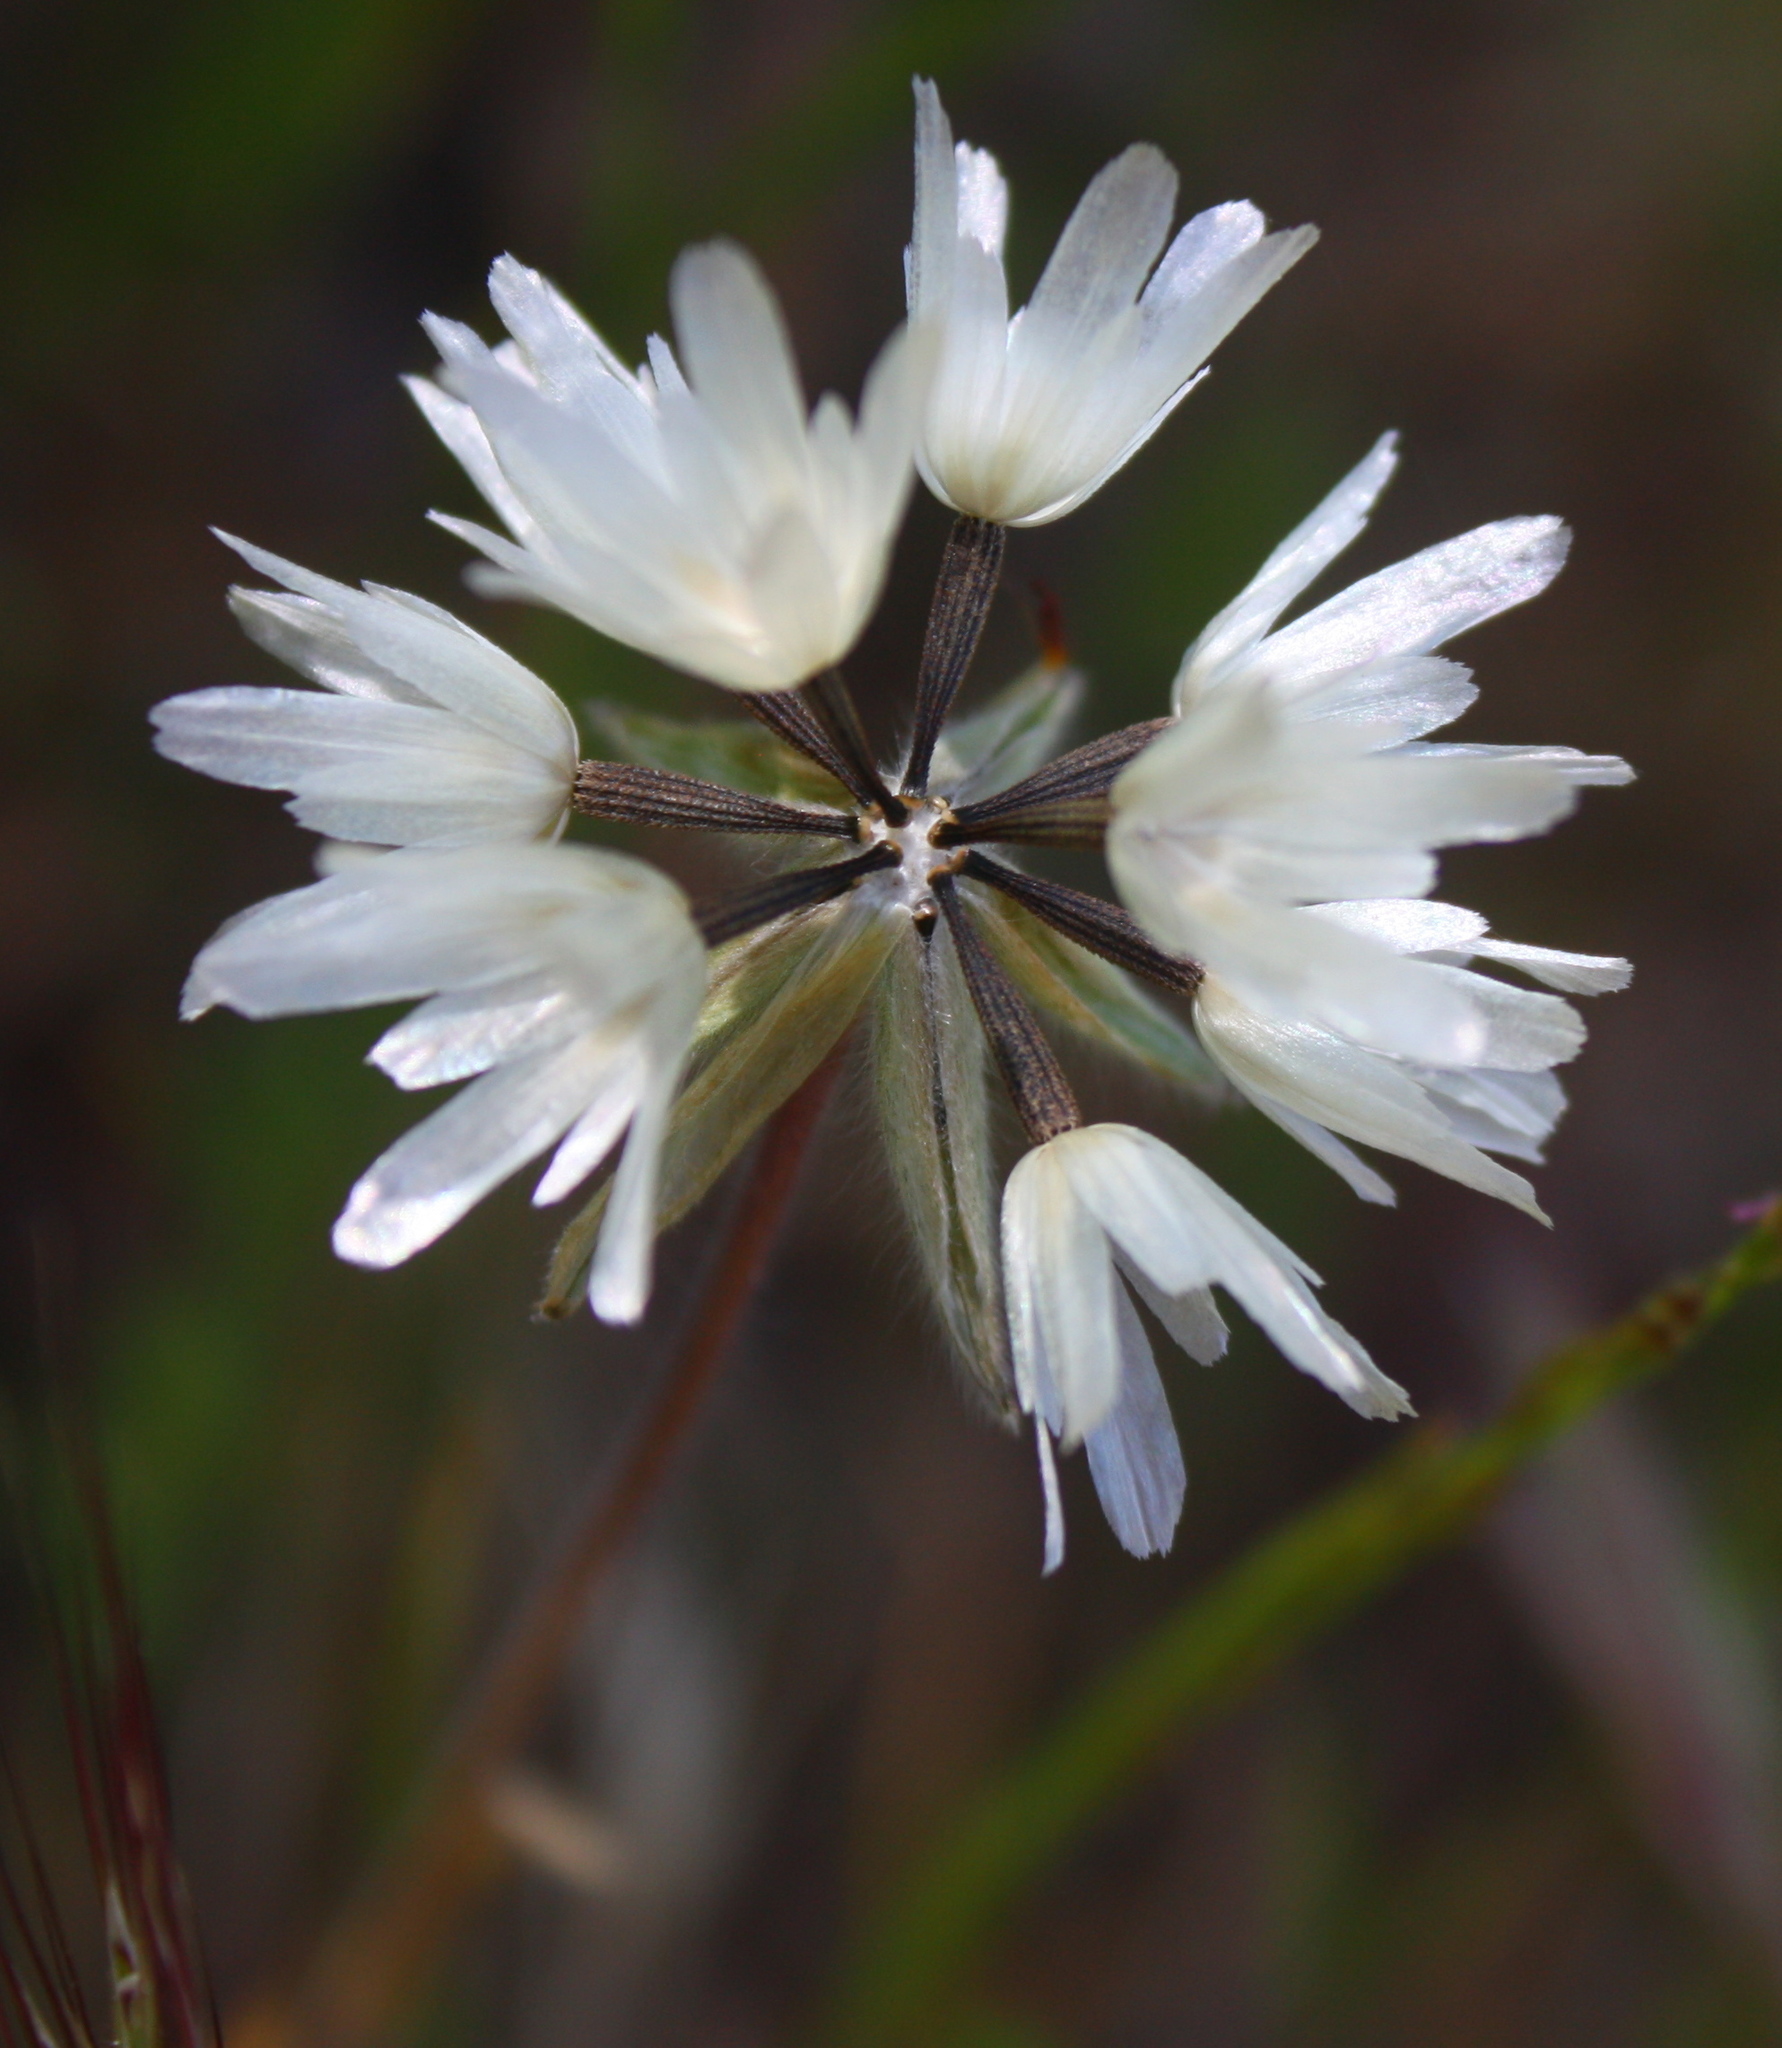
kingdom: Plantae
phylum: Tracheophyta
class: Magnoliopsida
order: Asterales
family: Asteraceae
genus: Achyrachaena
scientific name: Achyrachaena mollis
